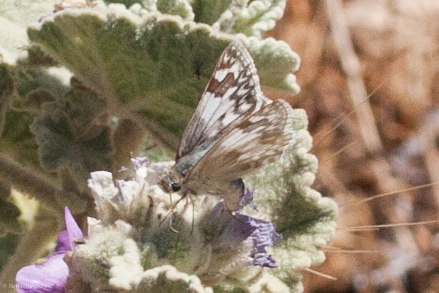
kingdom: Animalia
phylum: Arthropoda
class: Insecta
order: Lepidoptera
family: Hesperiidae
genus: Heliopetes
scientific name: Heliopetes ericetorum
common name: Northern white-skipper
